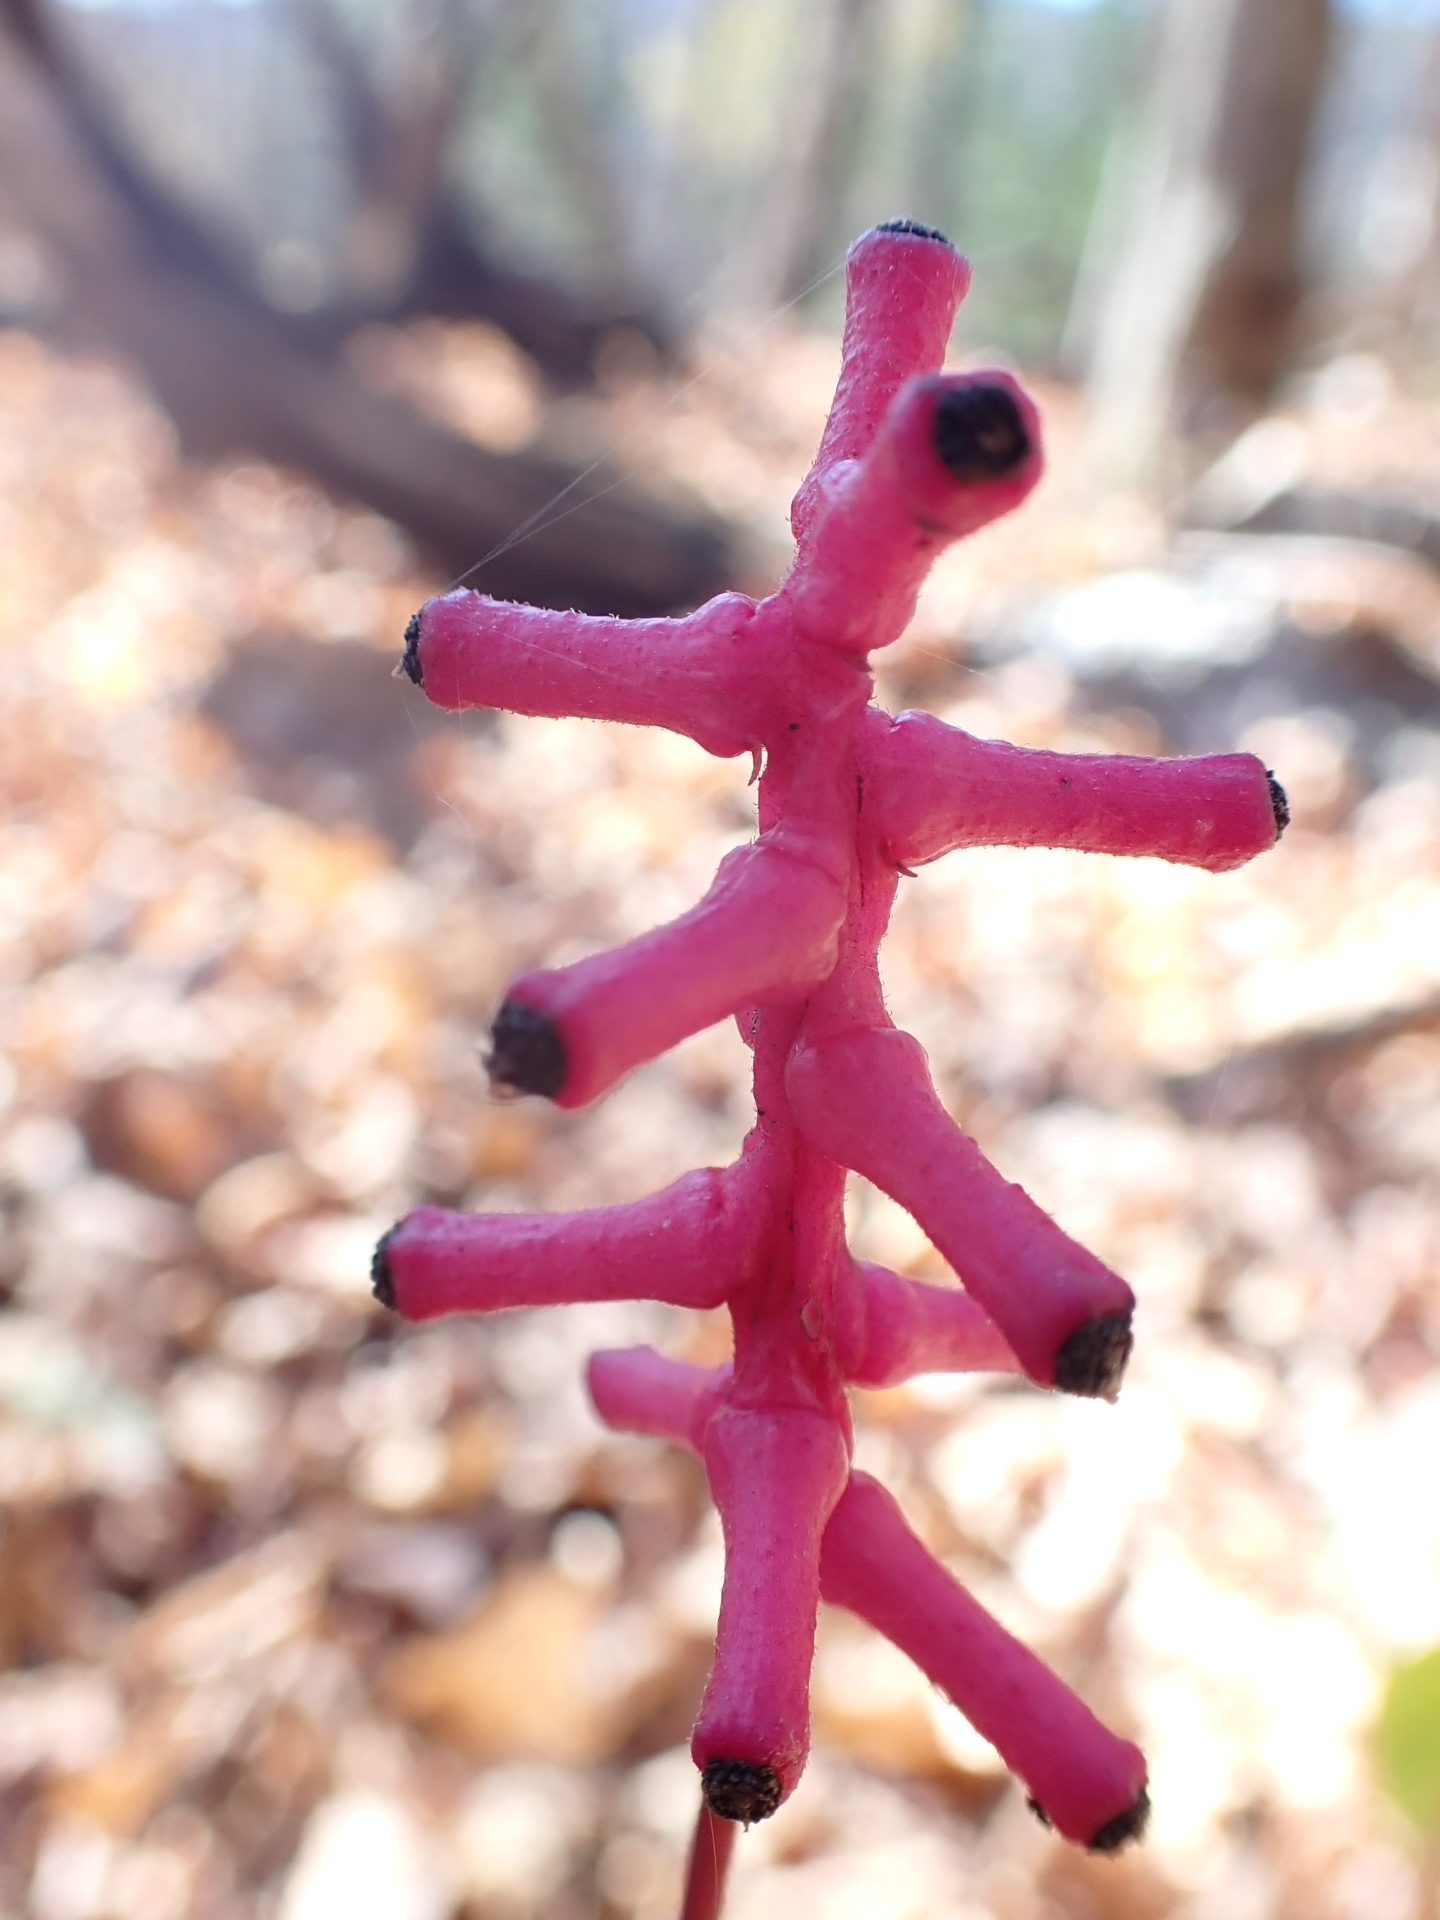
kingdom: Plantae
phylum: Tracheophyta
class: Magnoliopsida
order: Ranunculales
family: Ranunculaceae
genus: Actaea
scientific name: Actaea pachypoda
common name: Doll's-eyes
